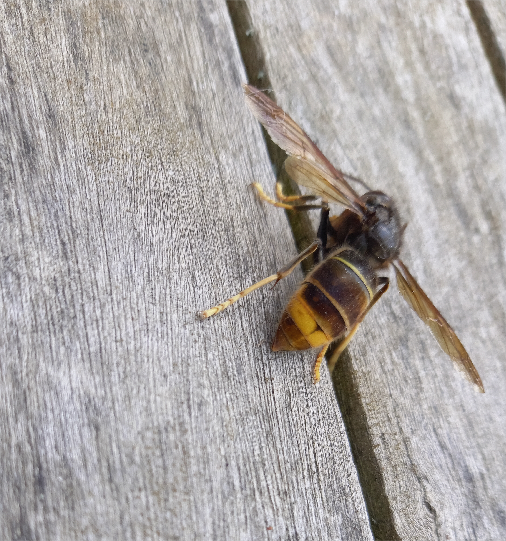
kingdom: Animalia
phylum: Arthropoda
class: Insecta
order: Hymenoptera
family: Vespidae
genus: Vespa
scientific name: Vespa velutina
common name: Asian hornet
